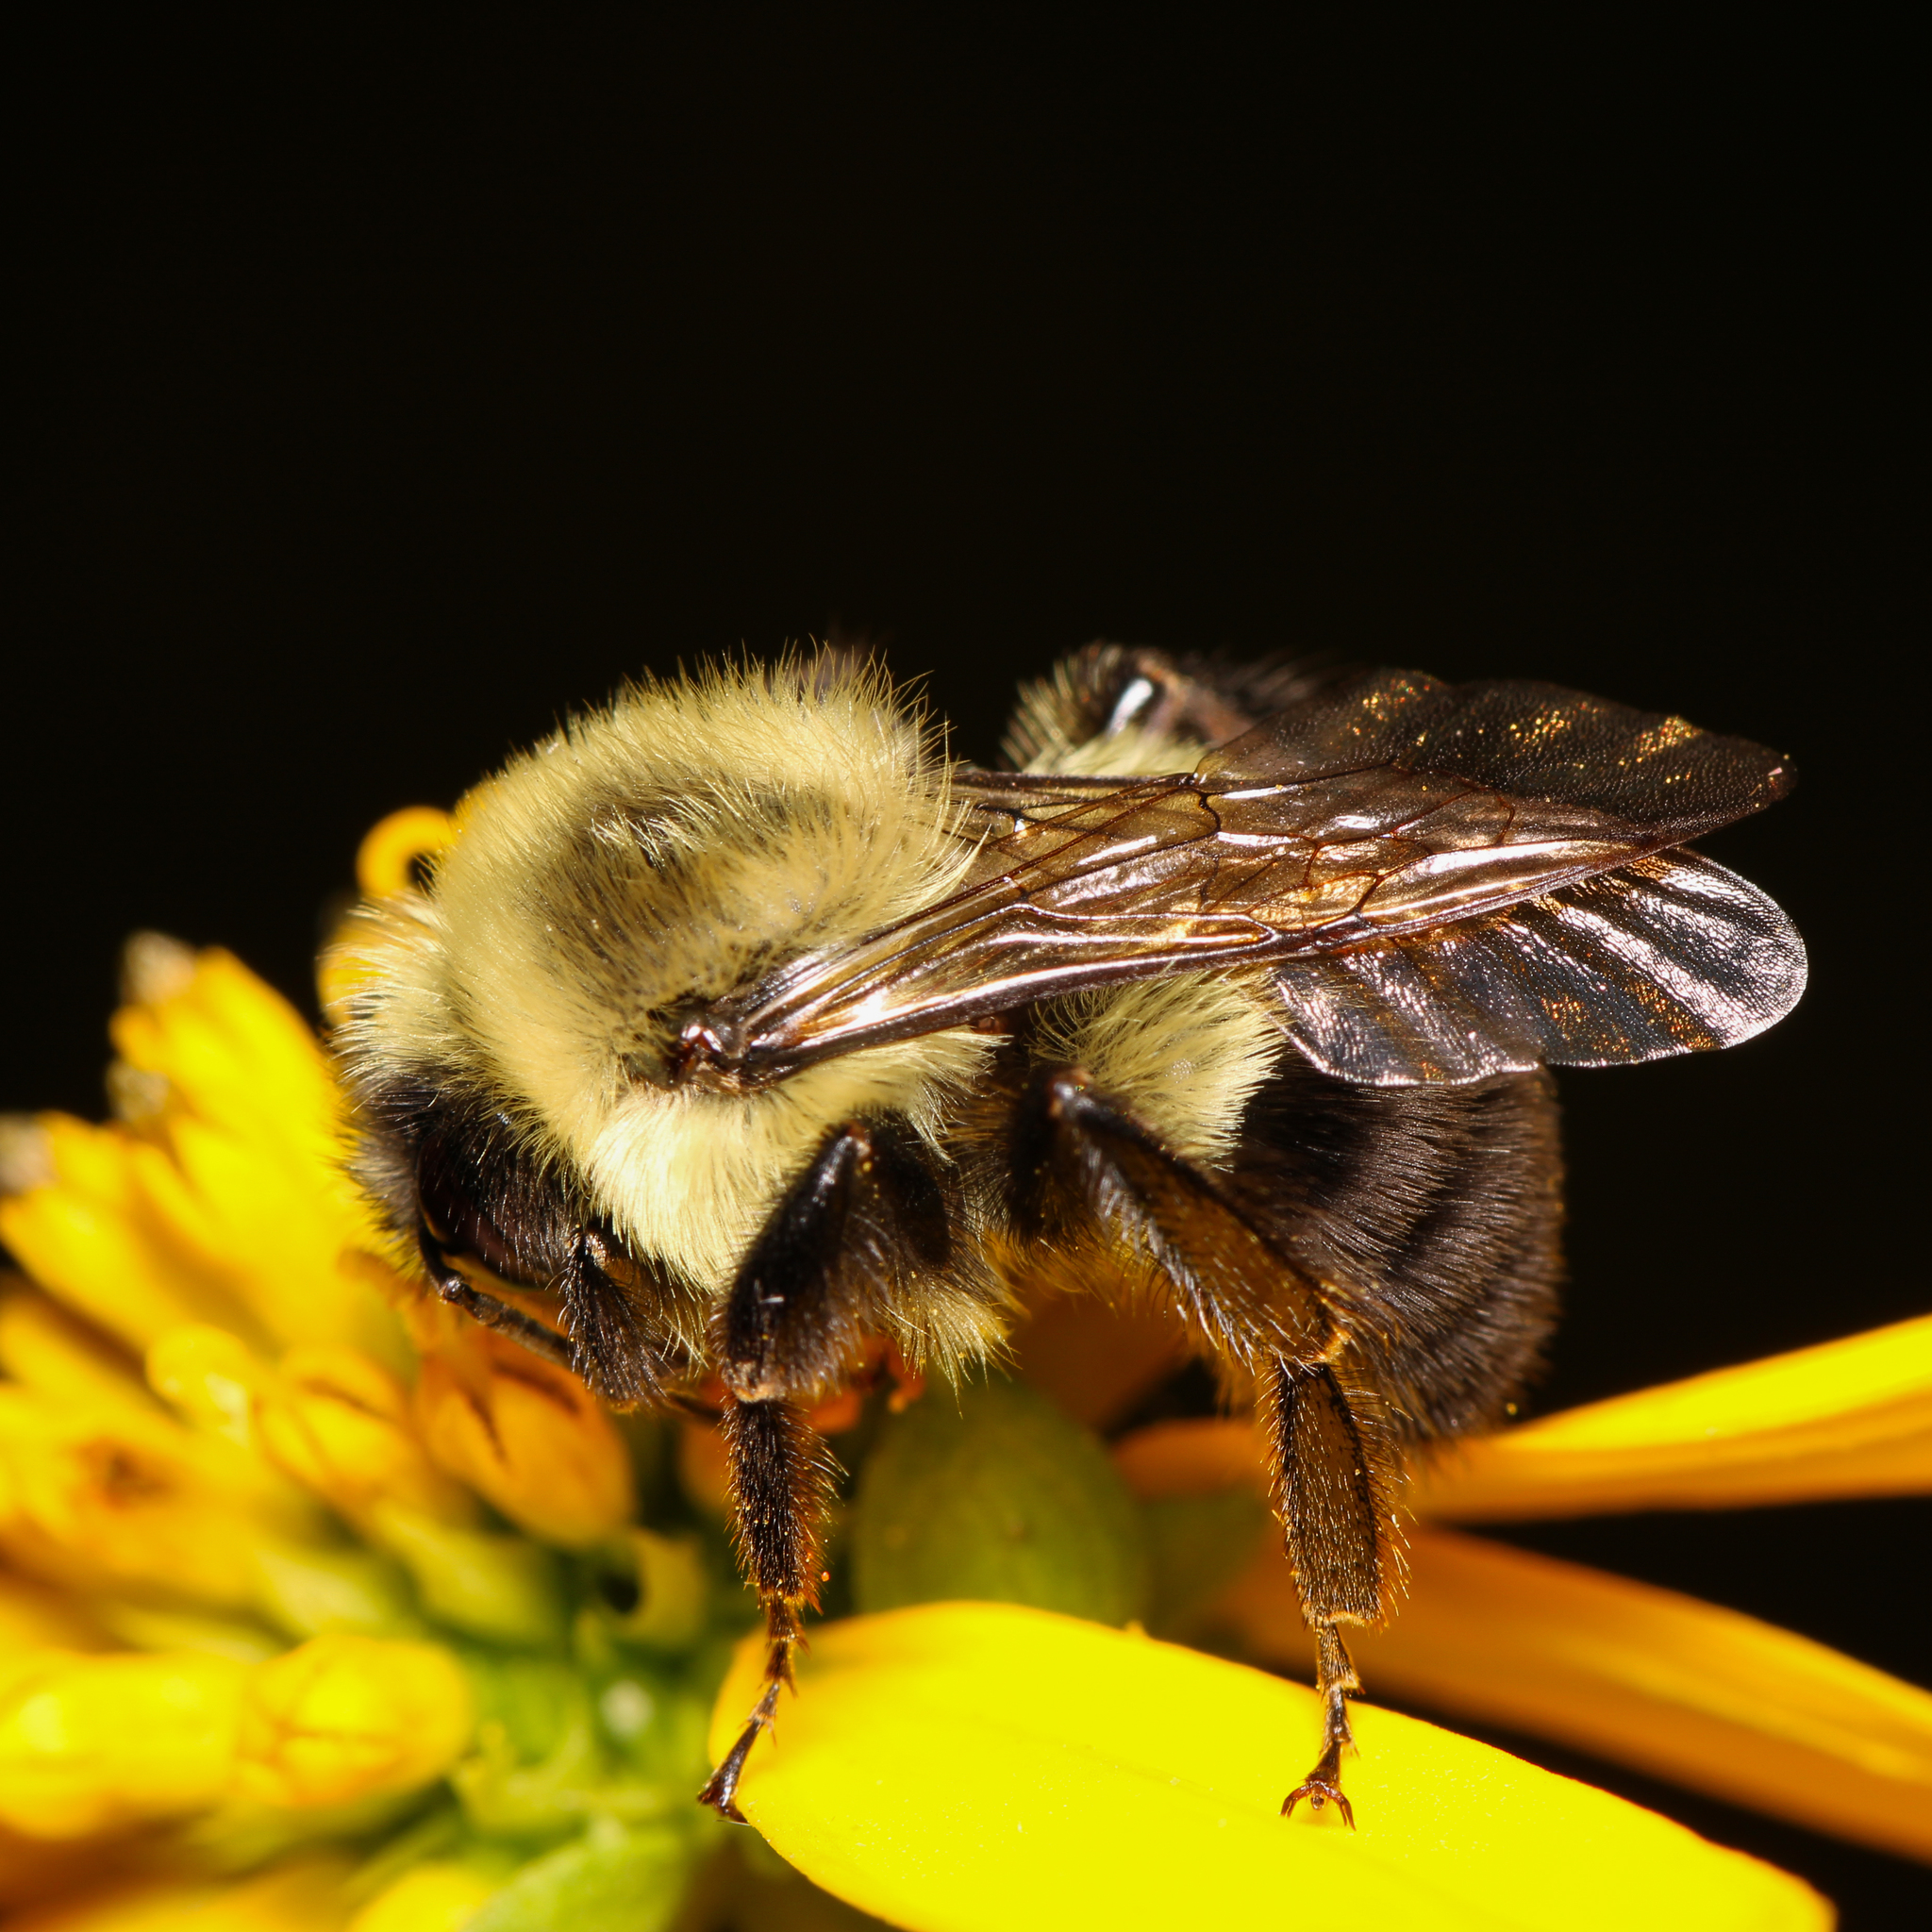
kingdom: Animalia
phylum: Arthropoda
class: Insecta
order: Hymenoptera
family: Apidae
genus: Bombus
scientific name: Bombus impatiens
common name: Common eastern bumble bee
